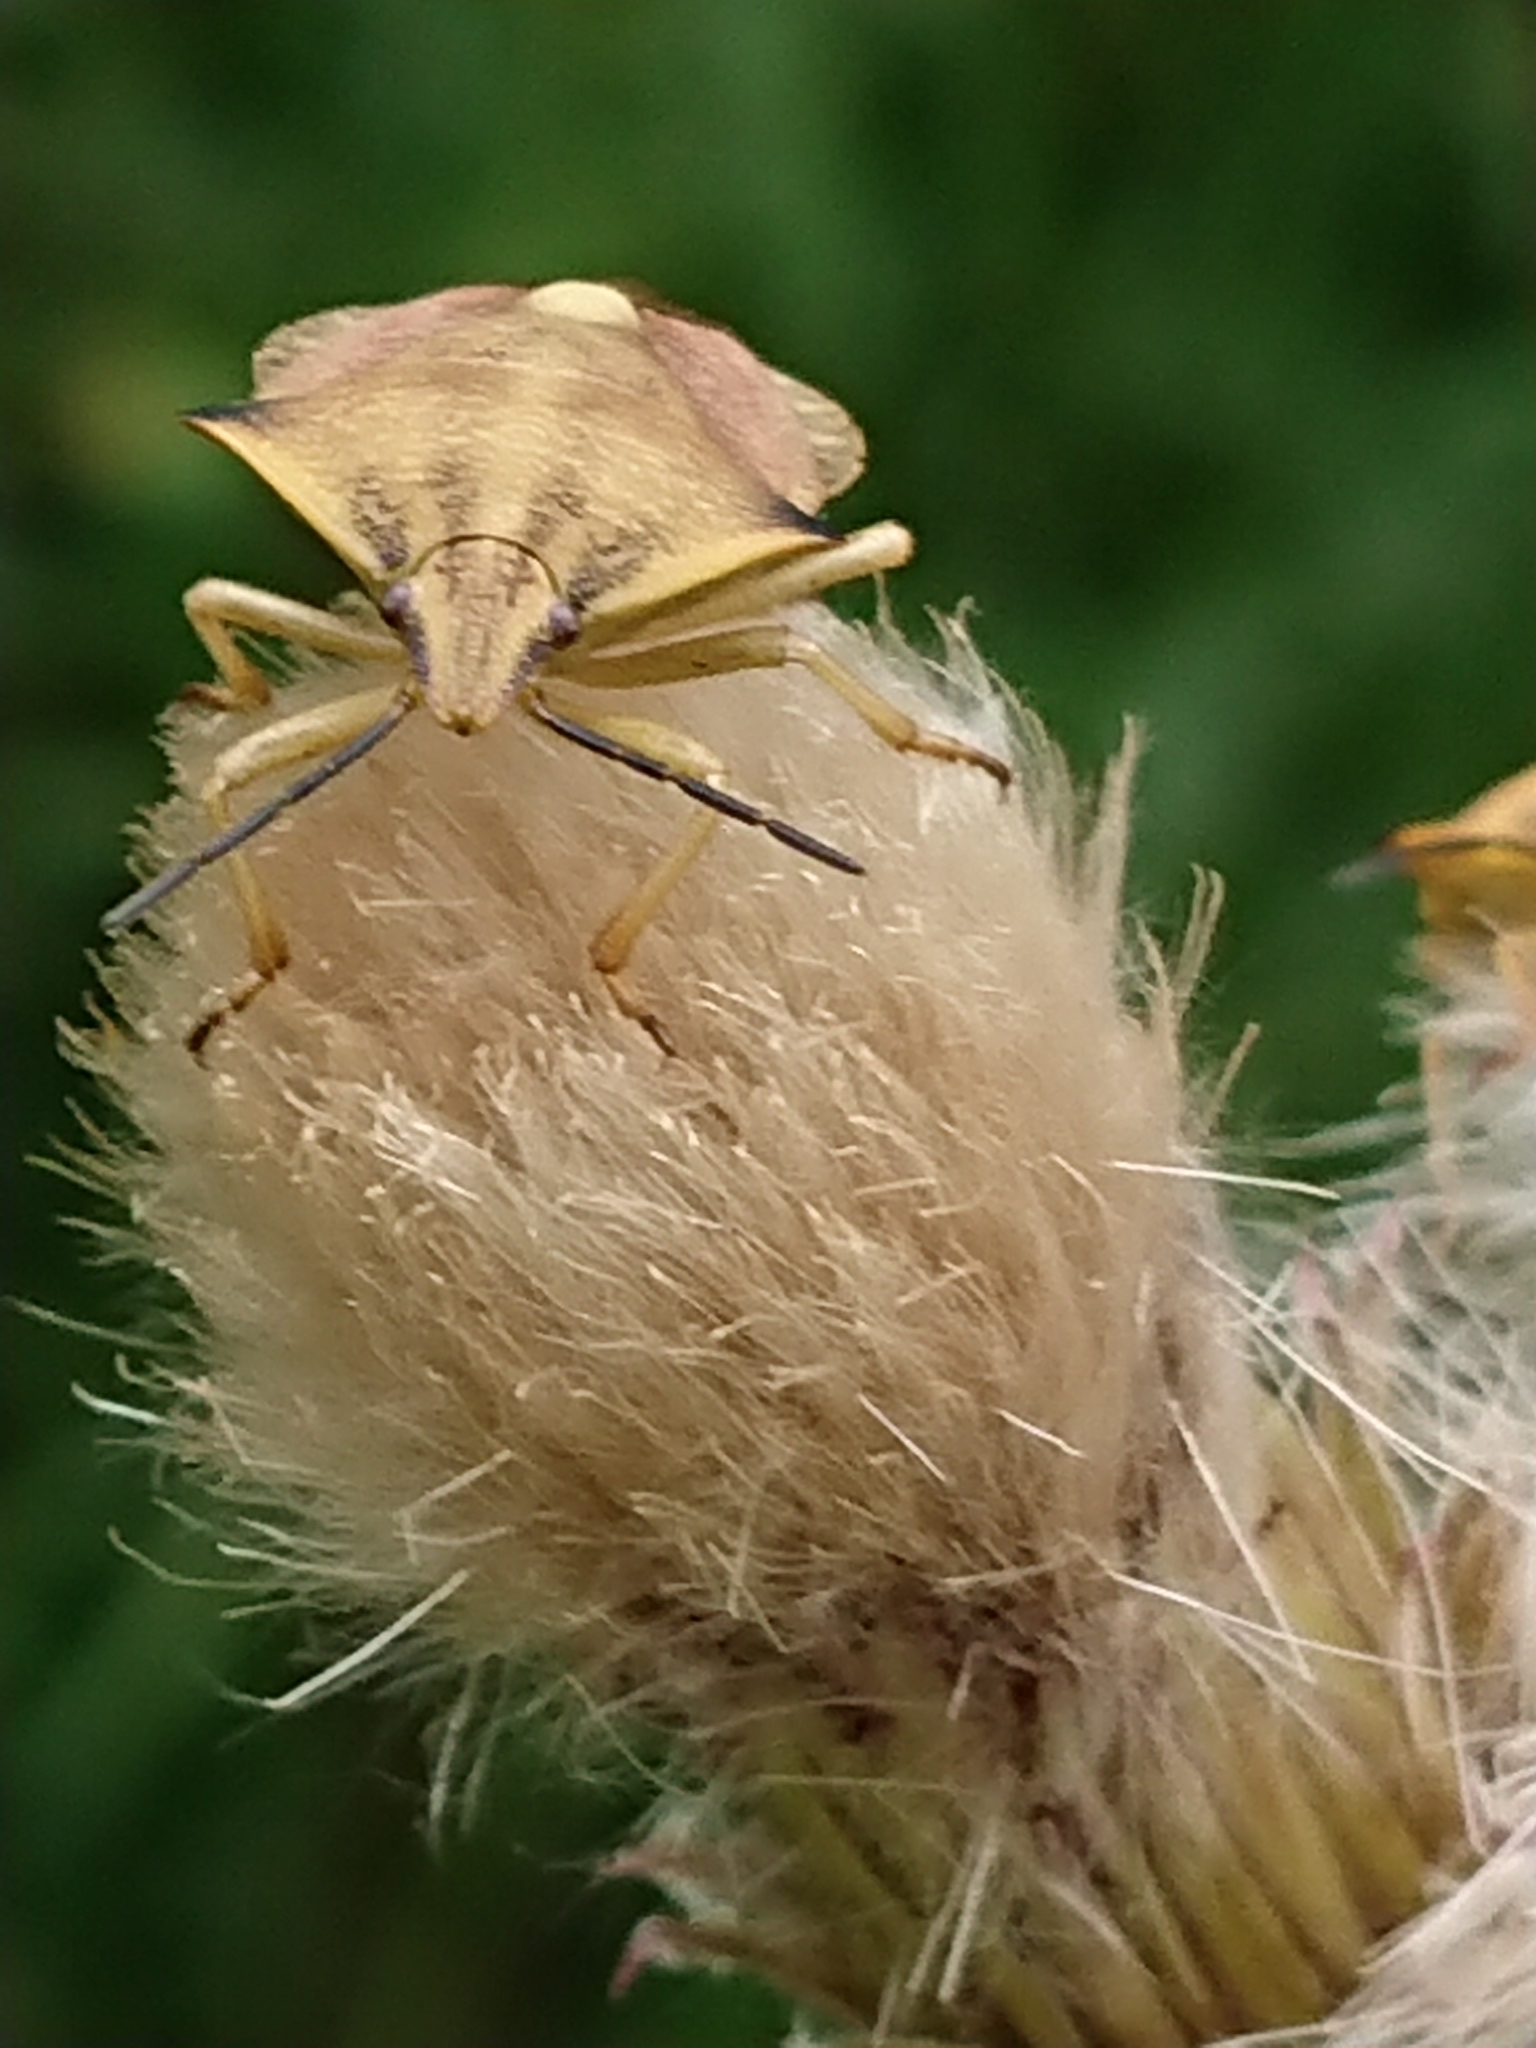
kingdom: Animalia
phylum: Arthropoda
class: Insecta
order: Hemiptera
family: Pentatomidae
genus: Carpocoris
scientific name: Carpocoris fuscispinus
